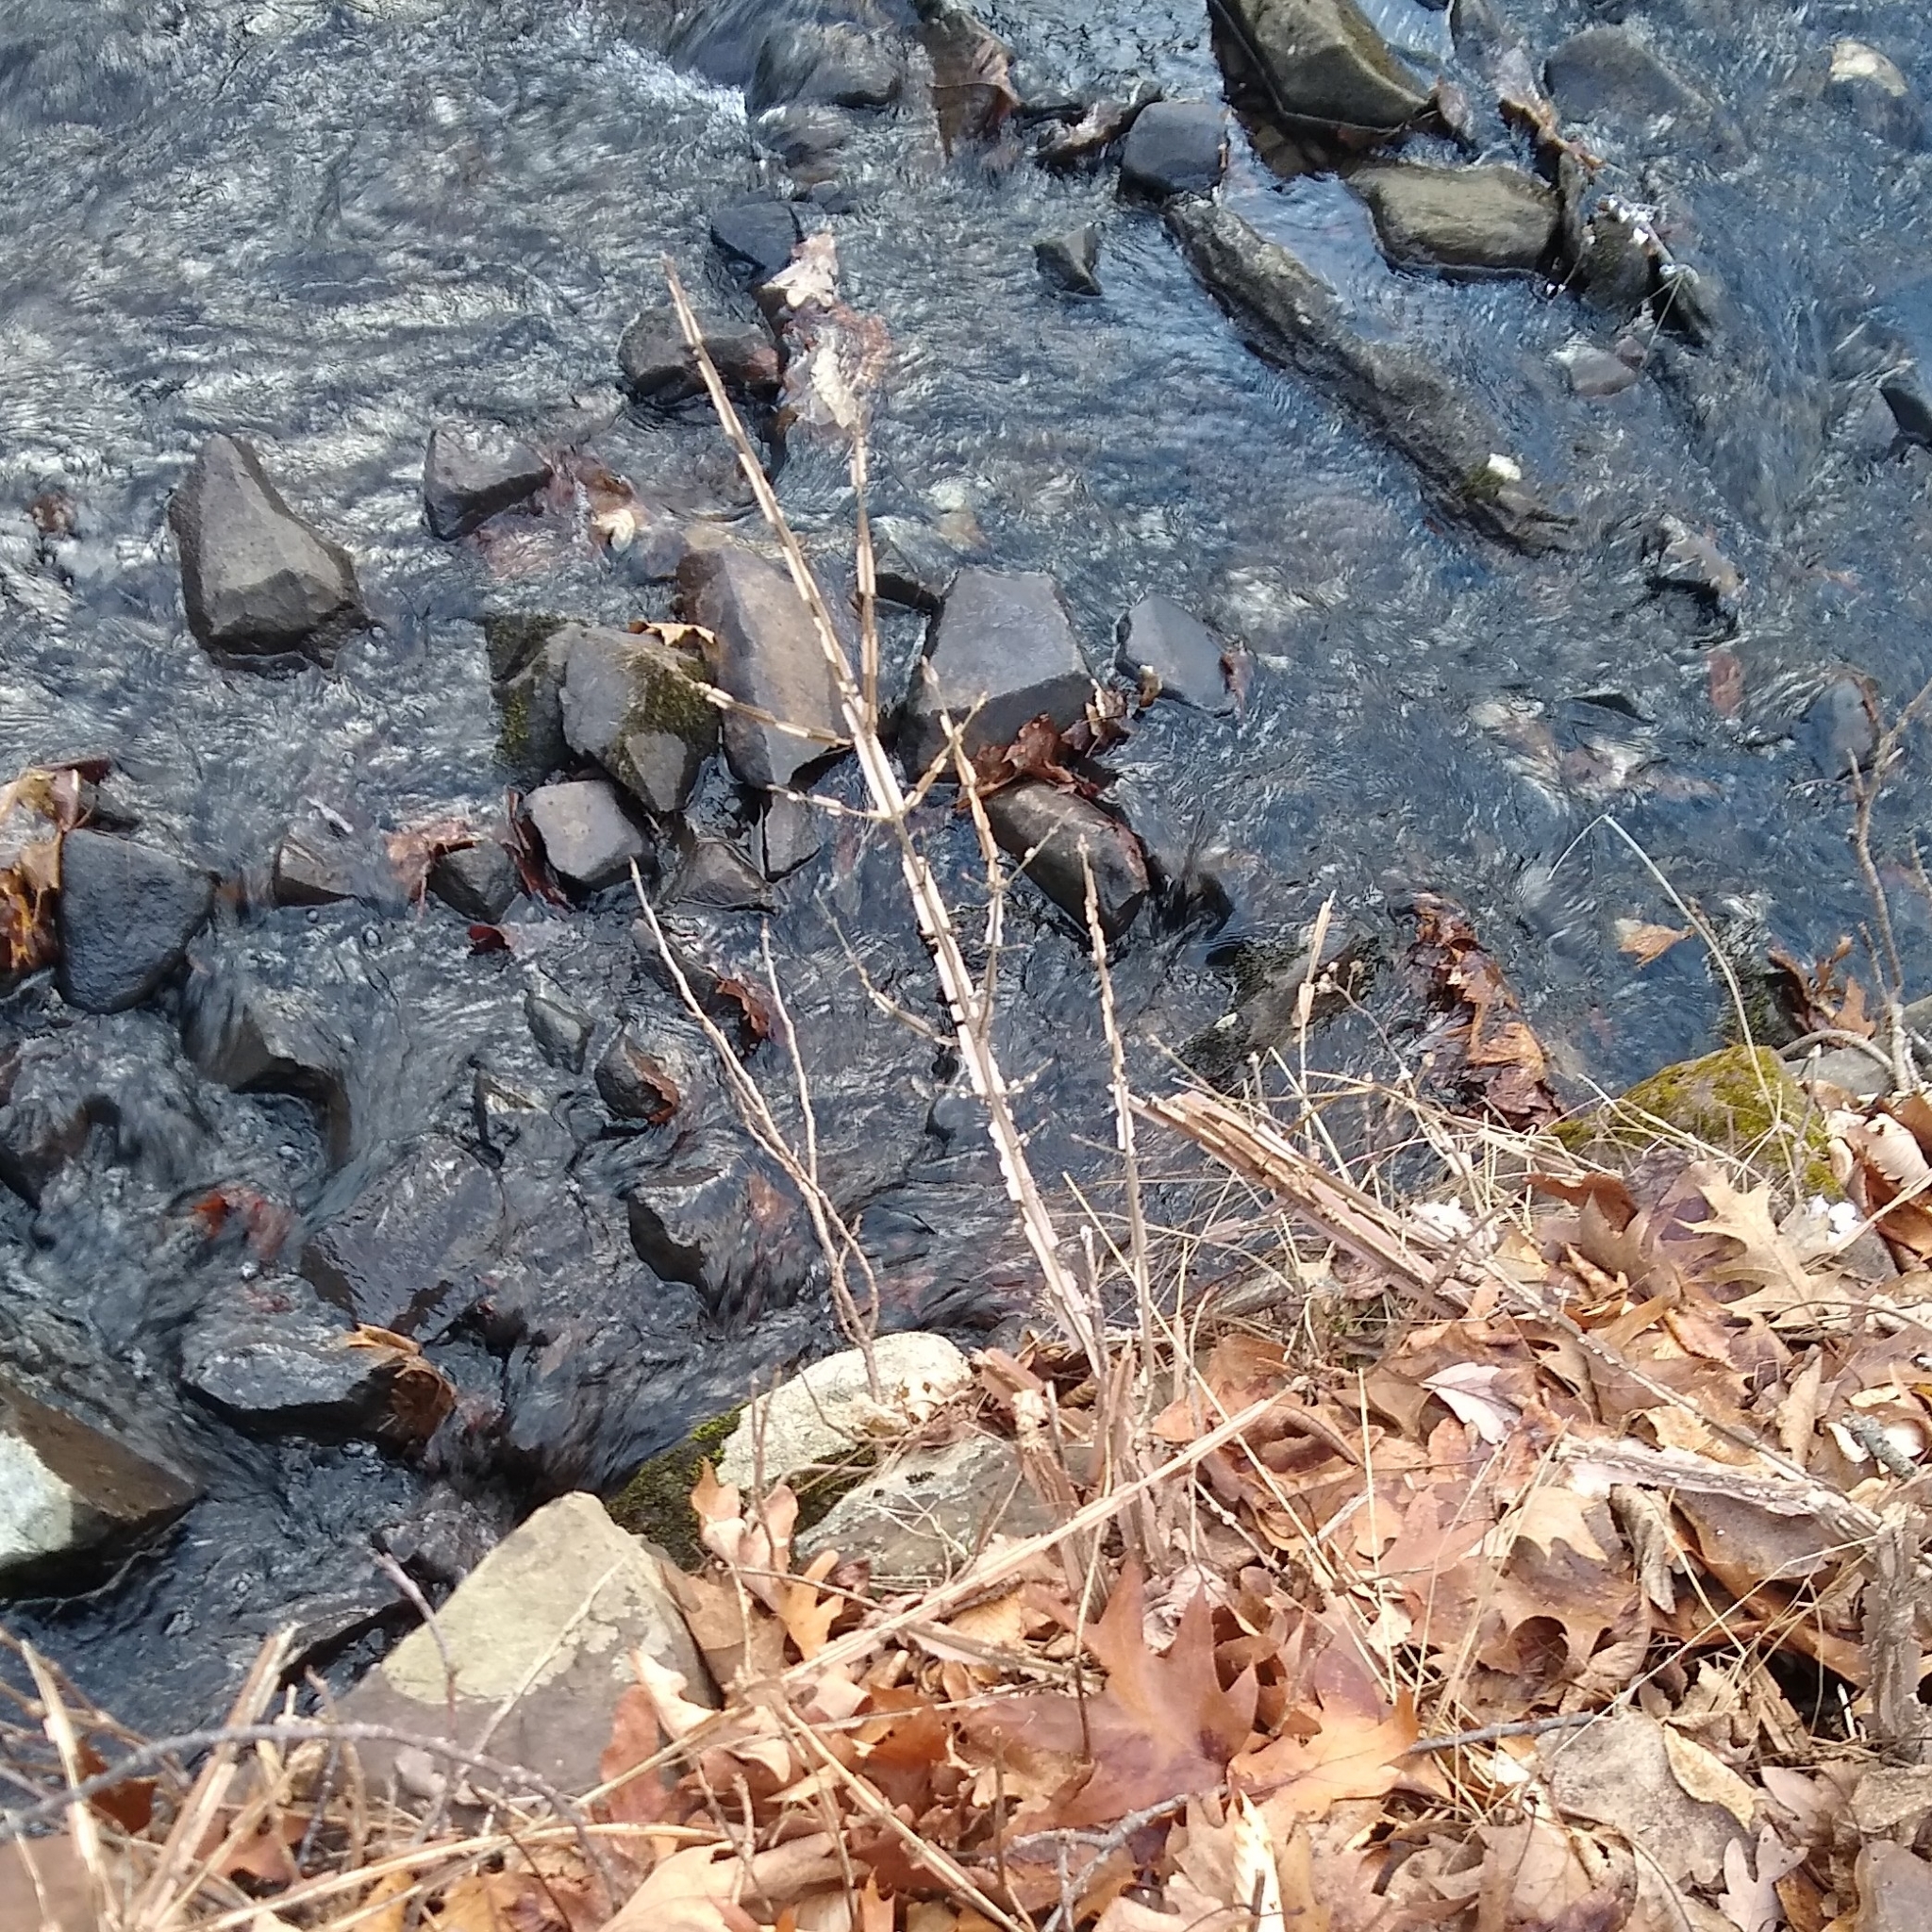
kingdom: Plantae
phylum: Tracheophyta
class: Magnoliopsida
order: Celastrales
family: Celastraceae
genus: Euonymus
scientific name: Euonymus alatus
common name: Winged euonymus
